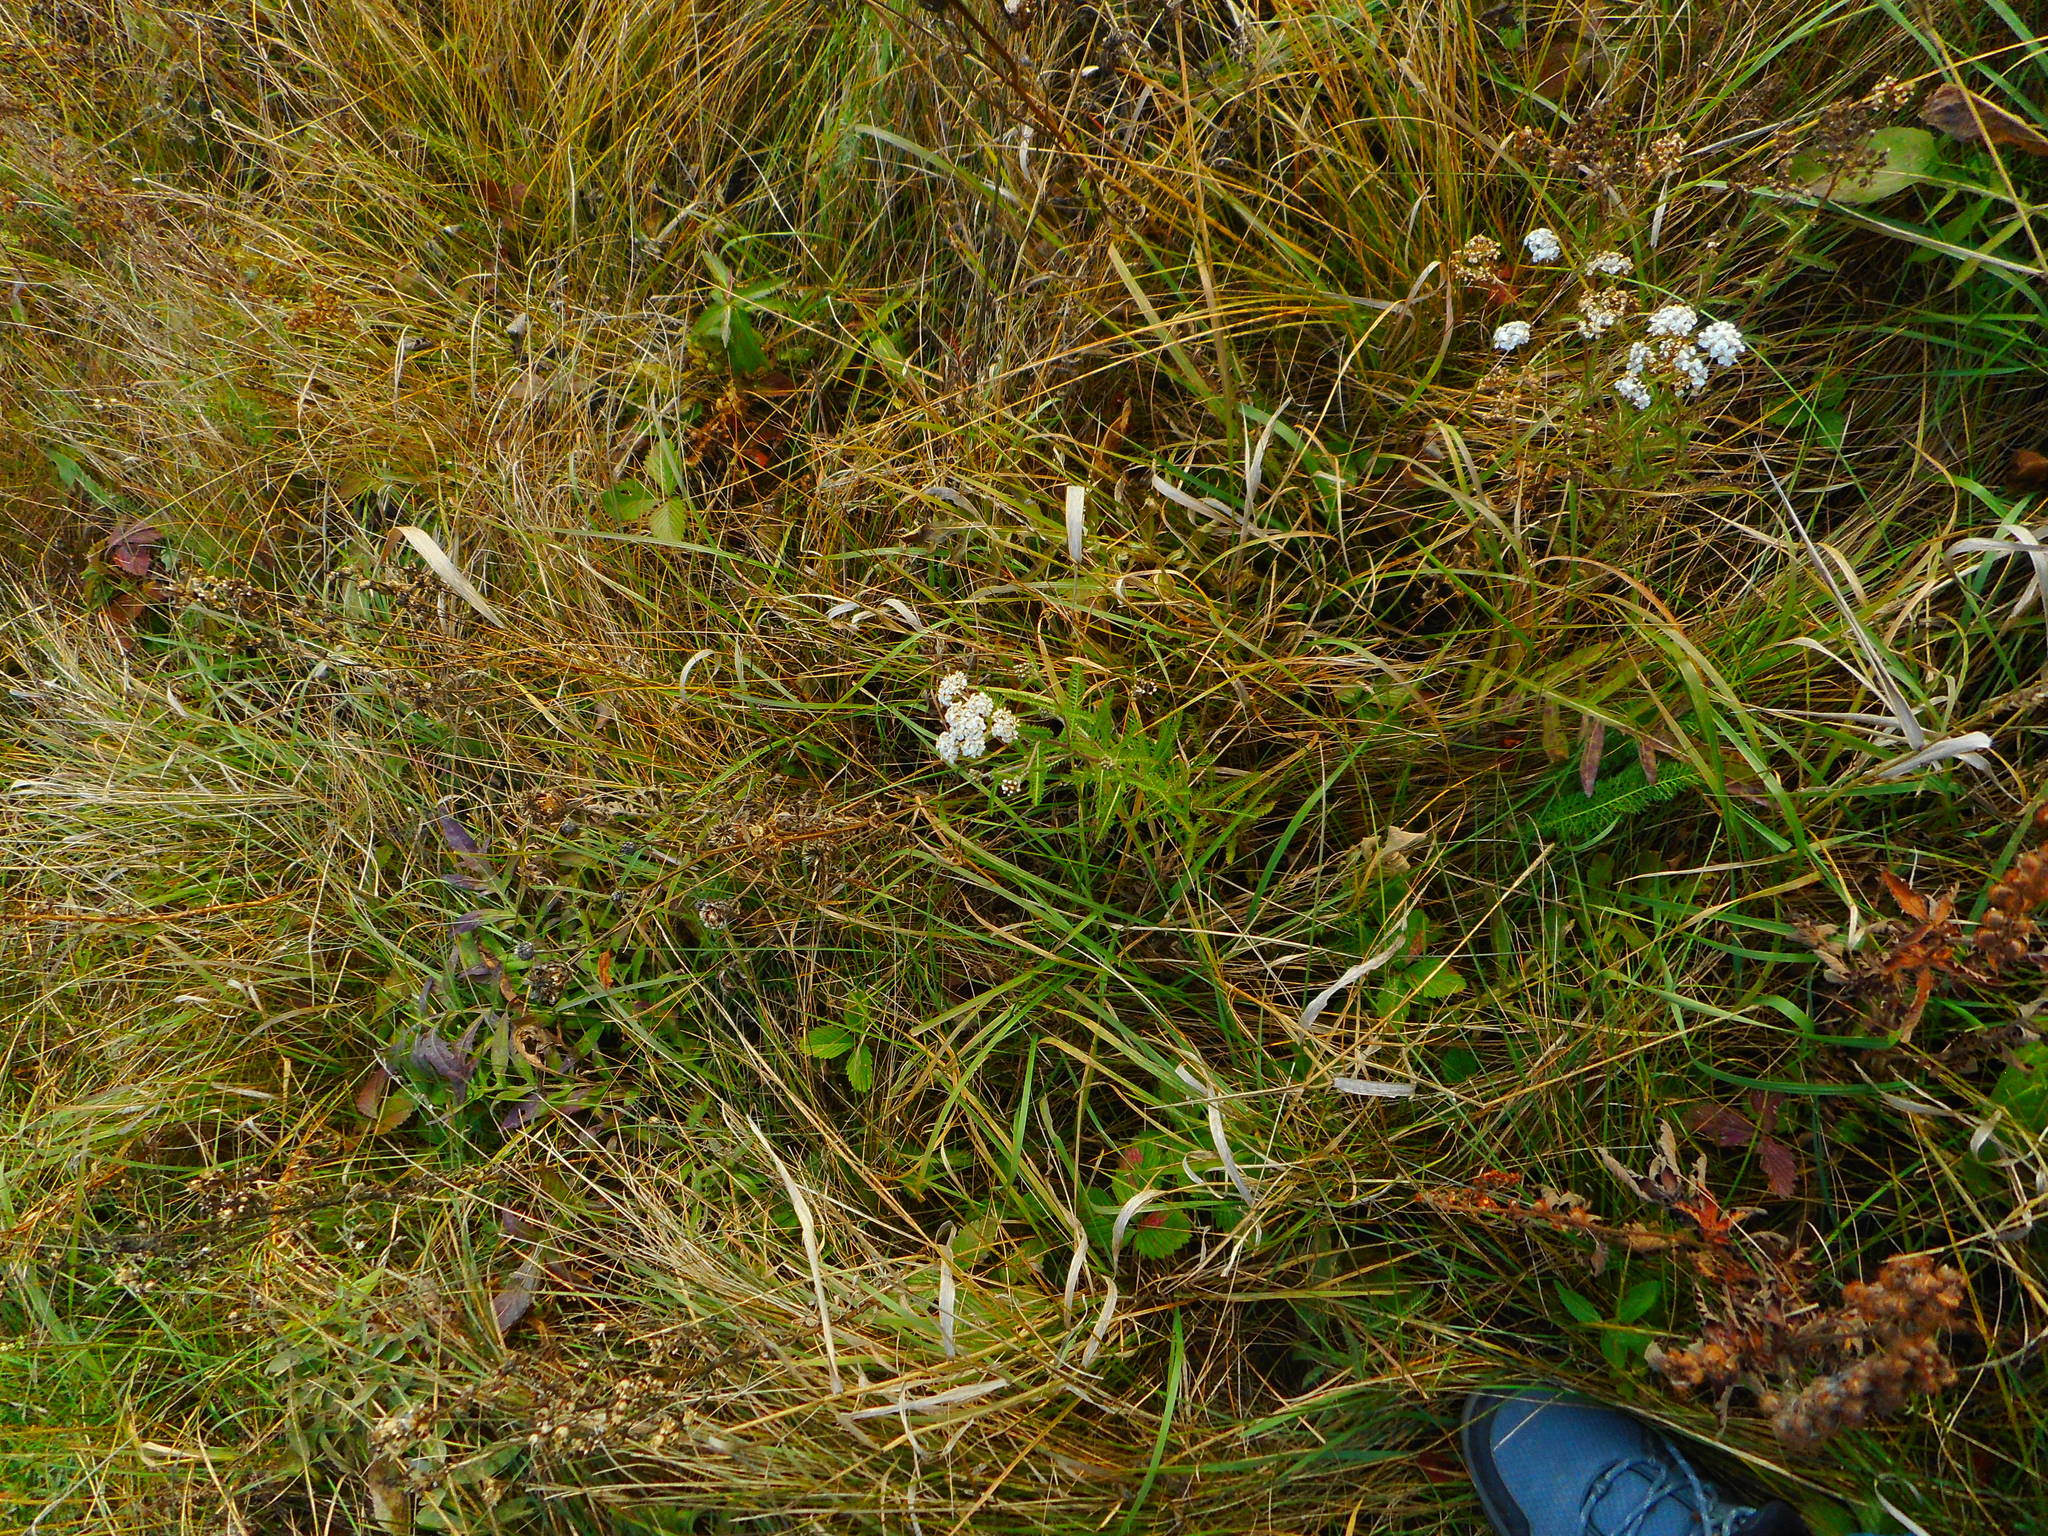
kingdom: Plantae
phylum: Tracheophyta
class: Magnoliopsida
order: Asterales
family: Asteraceae
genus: Achillea
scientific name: Achillea millefolium
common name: Yarrow
